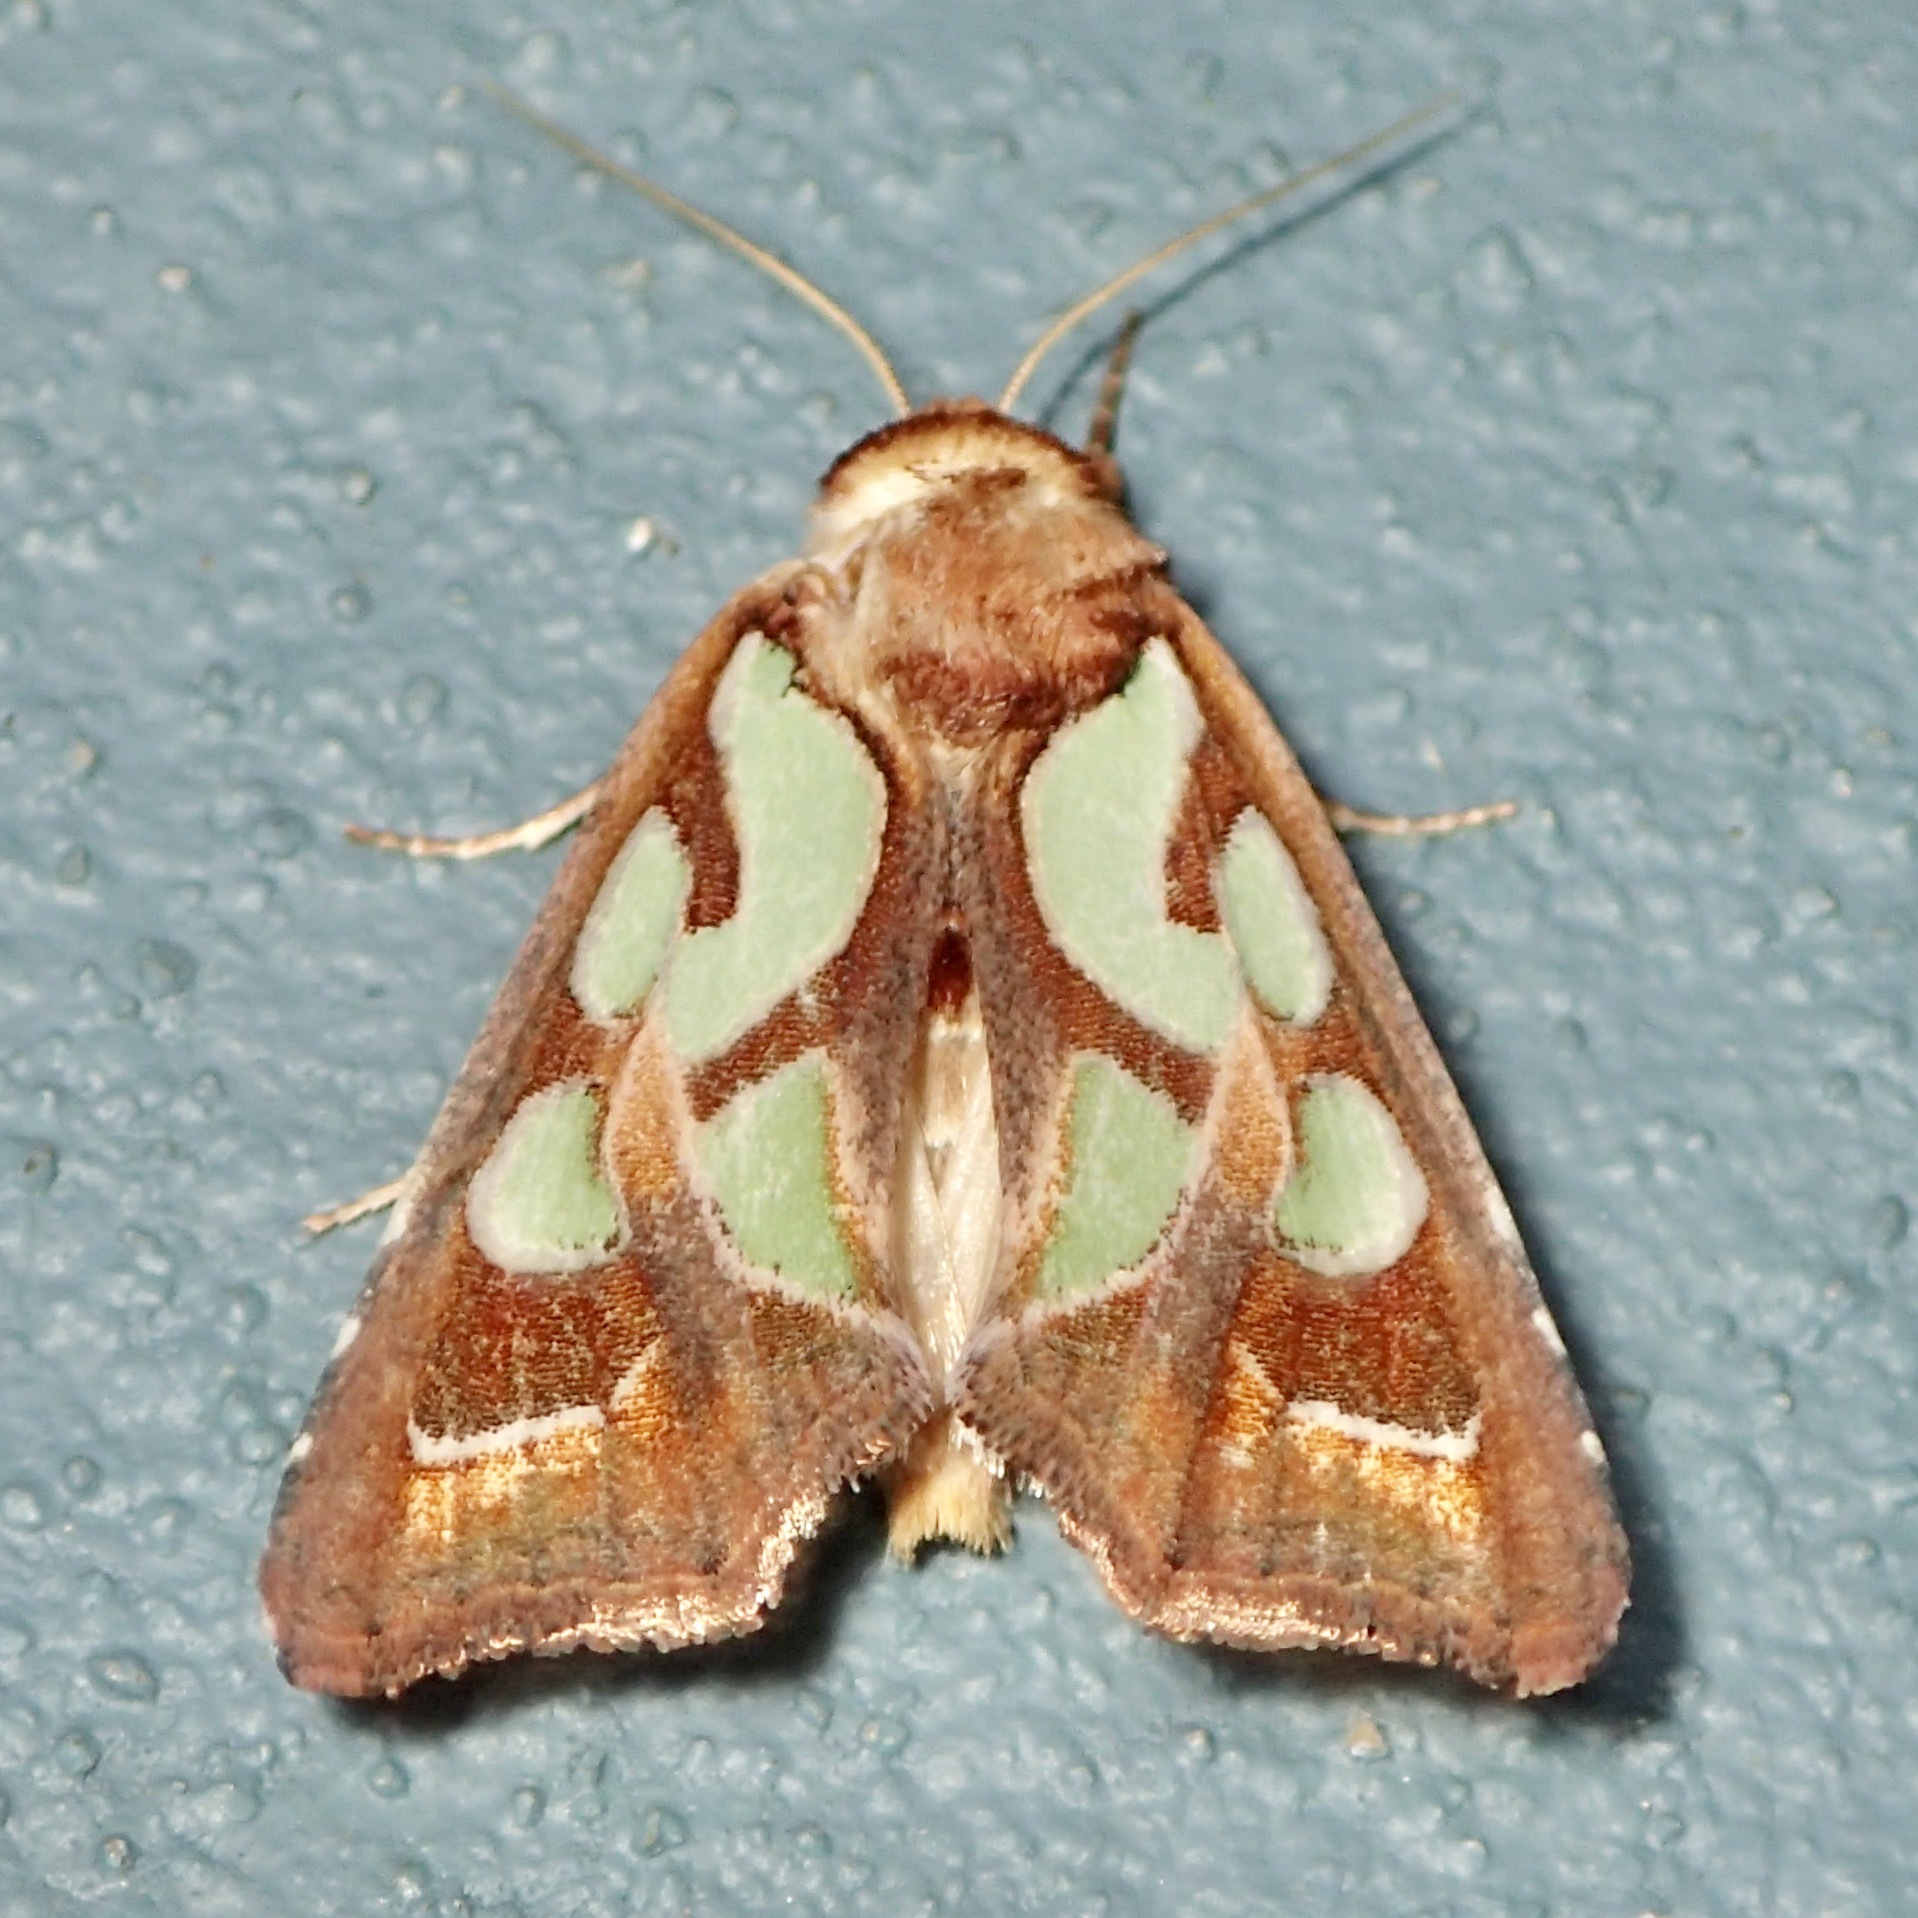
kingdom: Animalia
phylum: Arthropoda
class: Insecta
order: Lepidoptera
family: Noctuidae
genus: Cosmodes
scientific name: Cosmodes elegans
